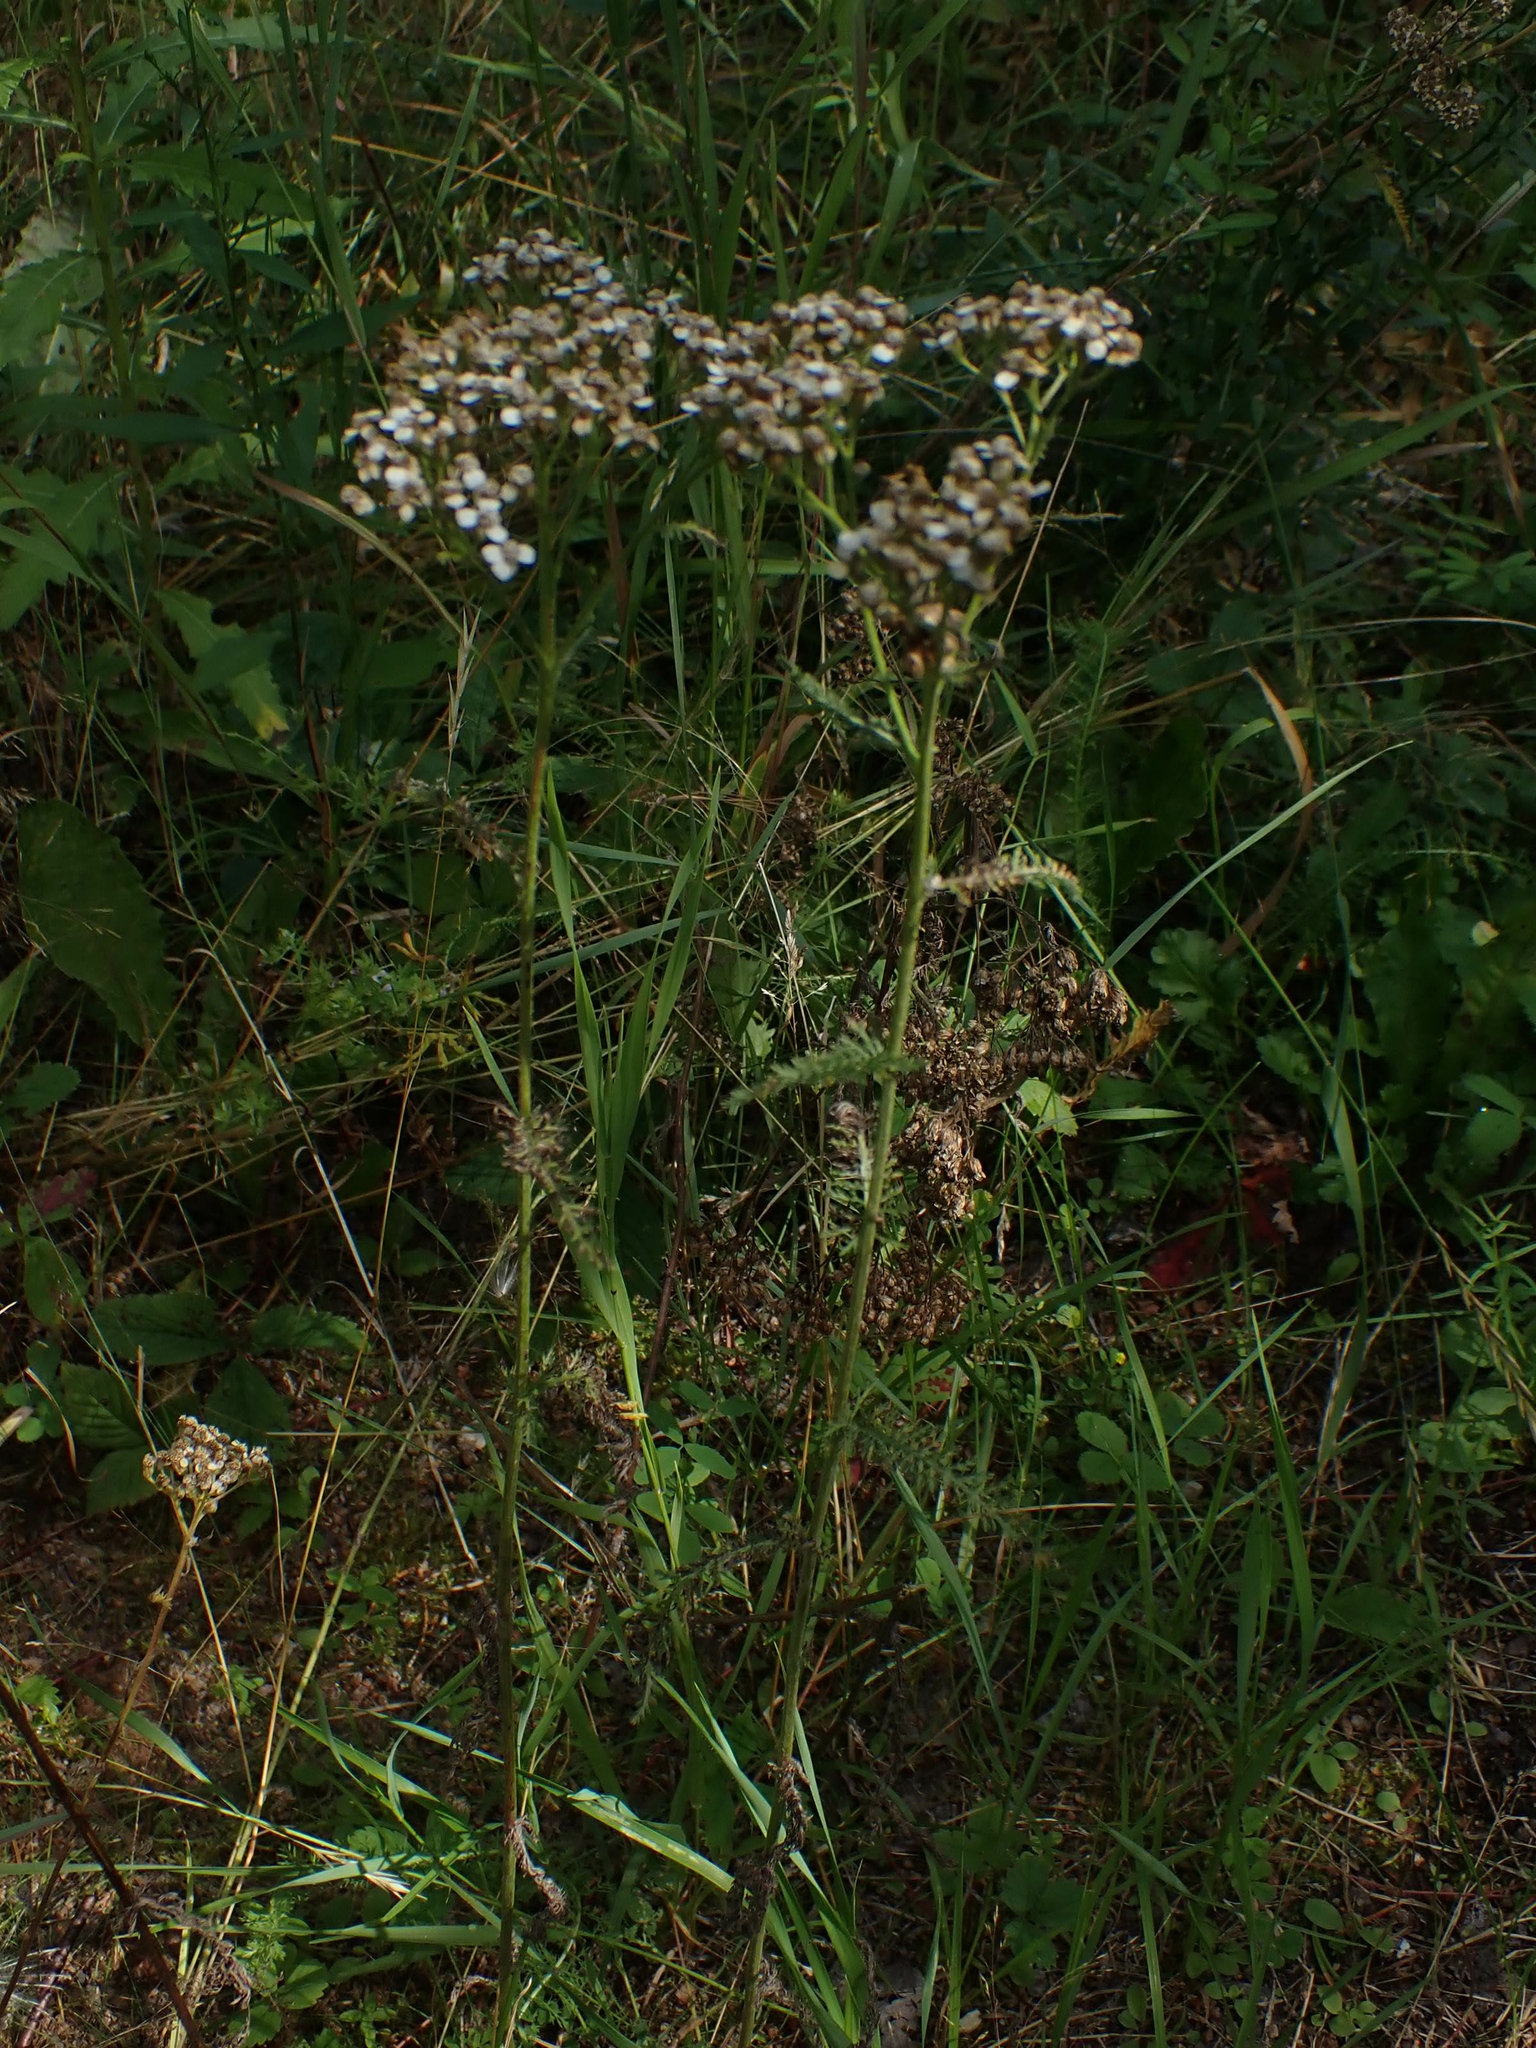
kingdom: Plantae
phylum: Tracheophyta
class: Magnoliopsida
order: Asterales
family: Asteraceae
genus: Achillea
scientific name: Achillea millefolium
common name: Yarrow
